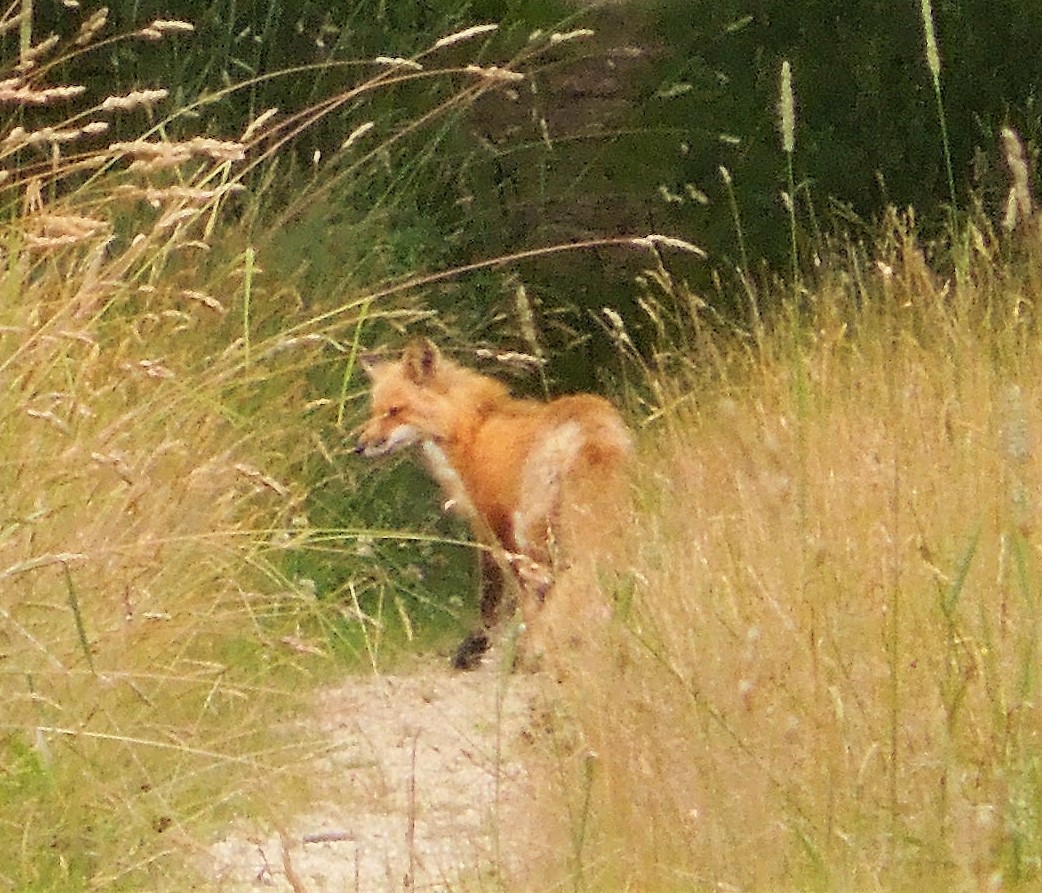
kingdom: Animalia
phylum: Chordata
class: Mammalia
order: Carnivora
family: Canidae
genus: Vulpes
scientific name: Vulpes vulpes
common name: Red fox
